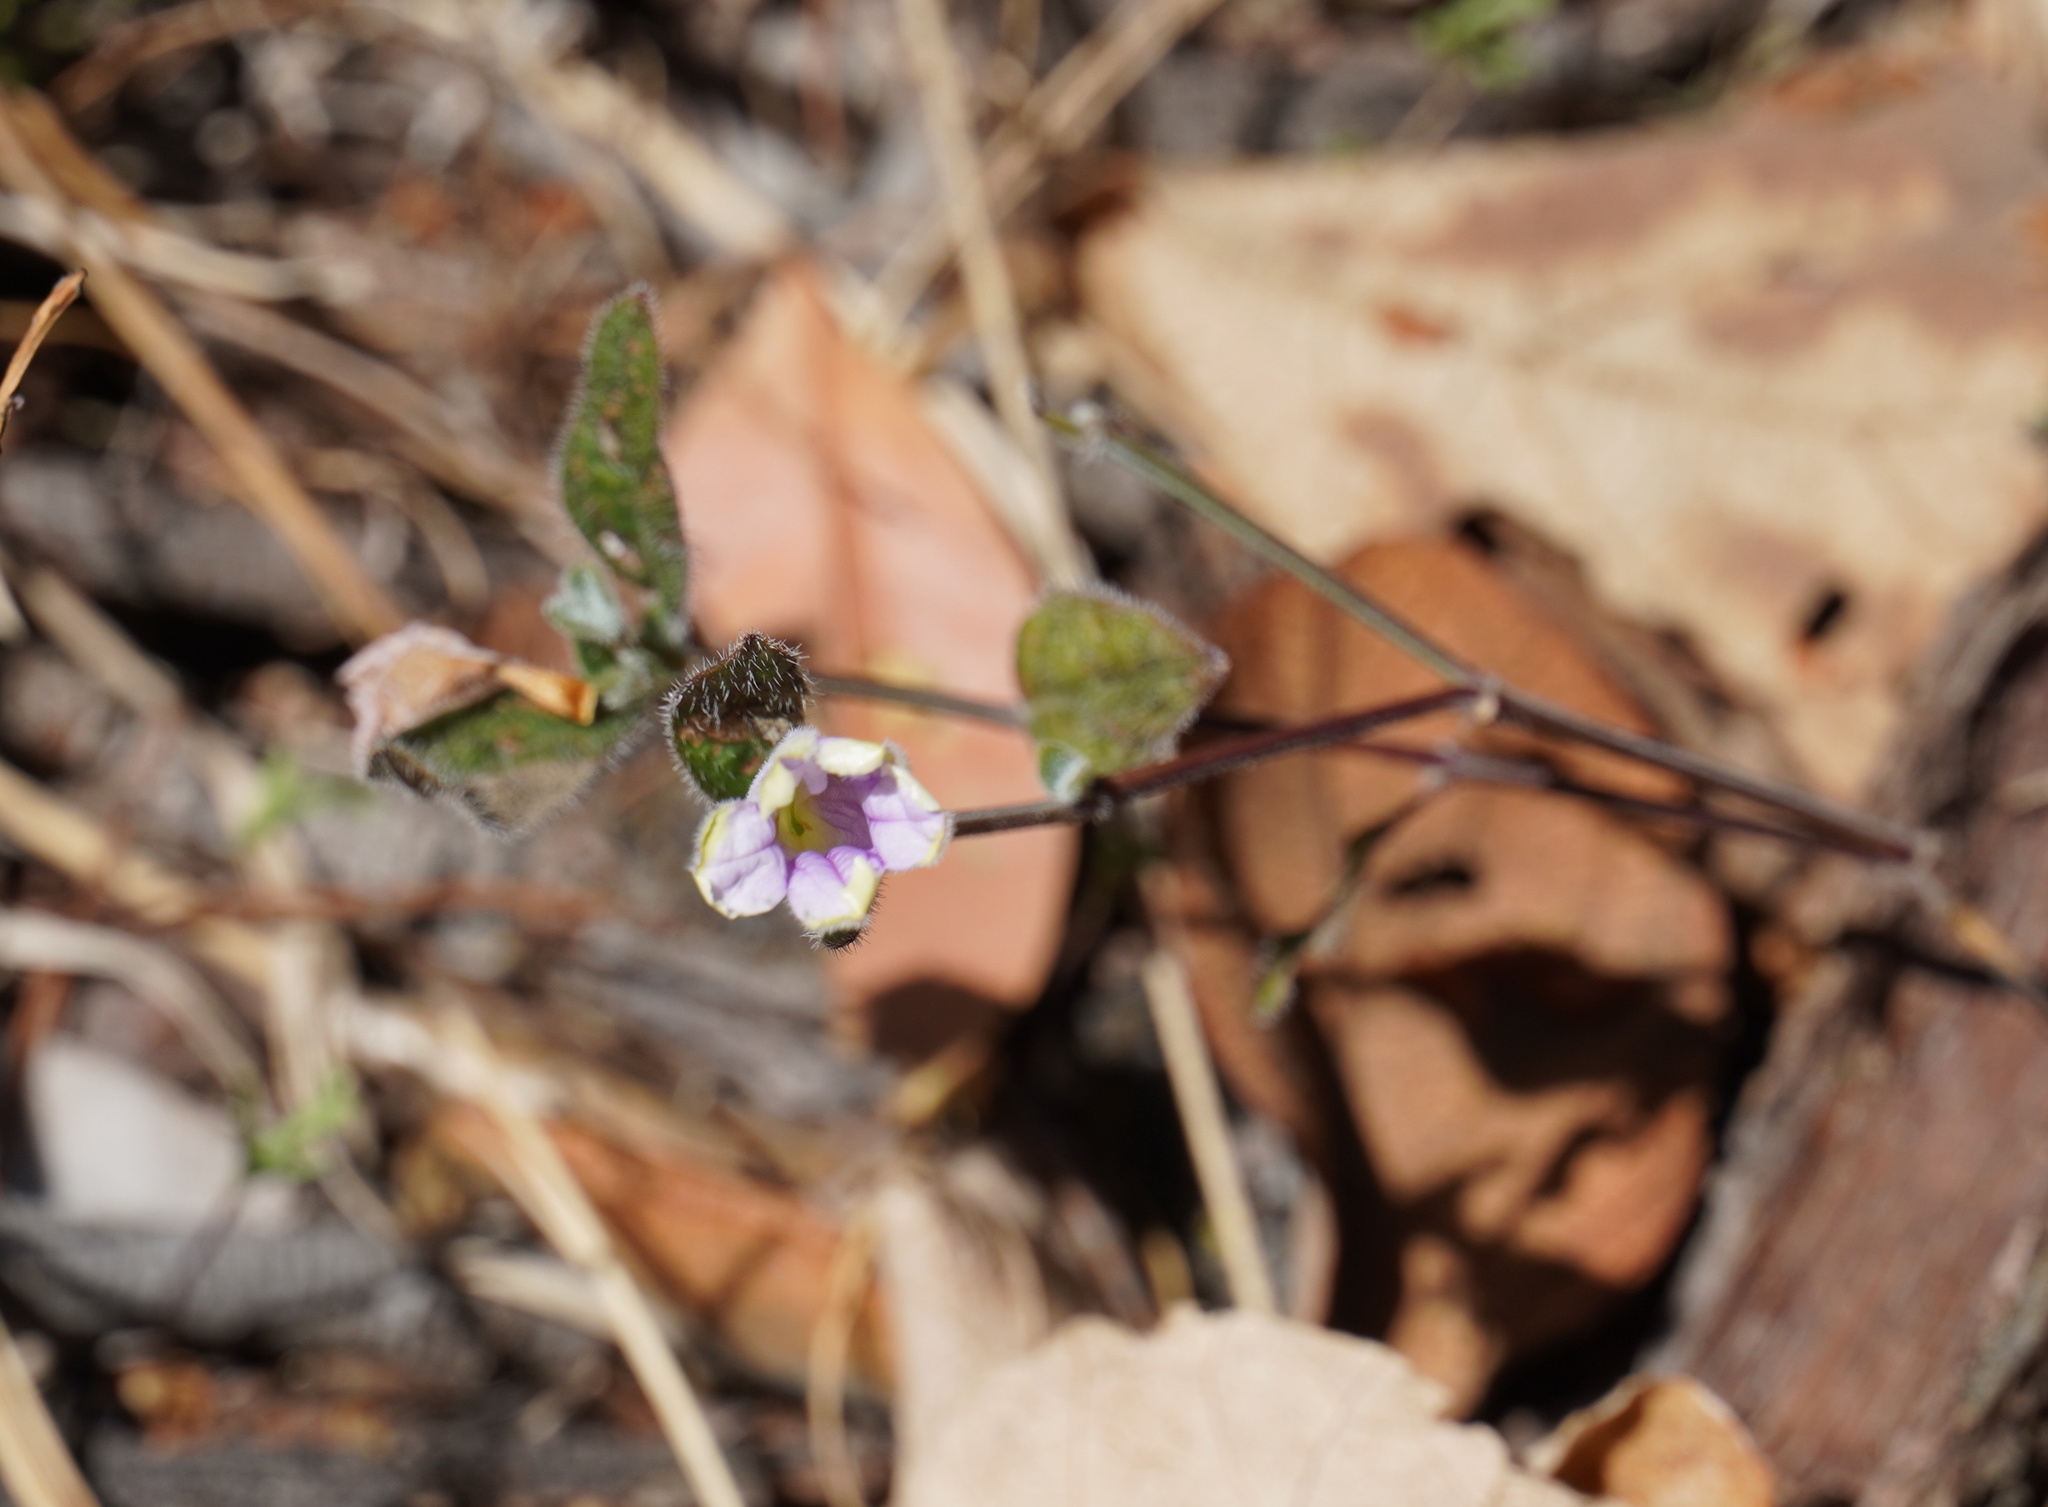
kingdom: Plantae
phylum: Tracheophyta
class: Magnoliopsida
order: Lamiales
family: Acanthaceae
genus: Ruellia
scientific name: Ruellia cordata
